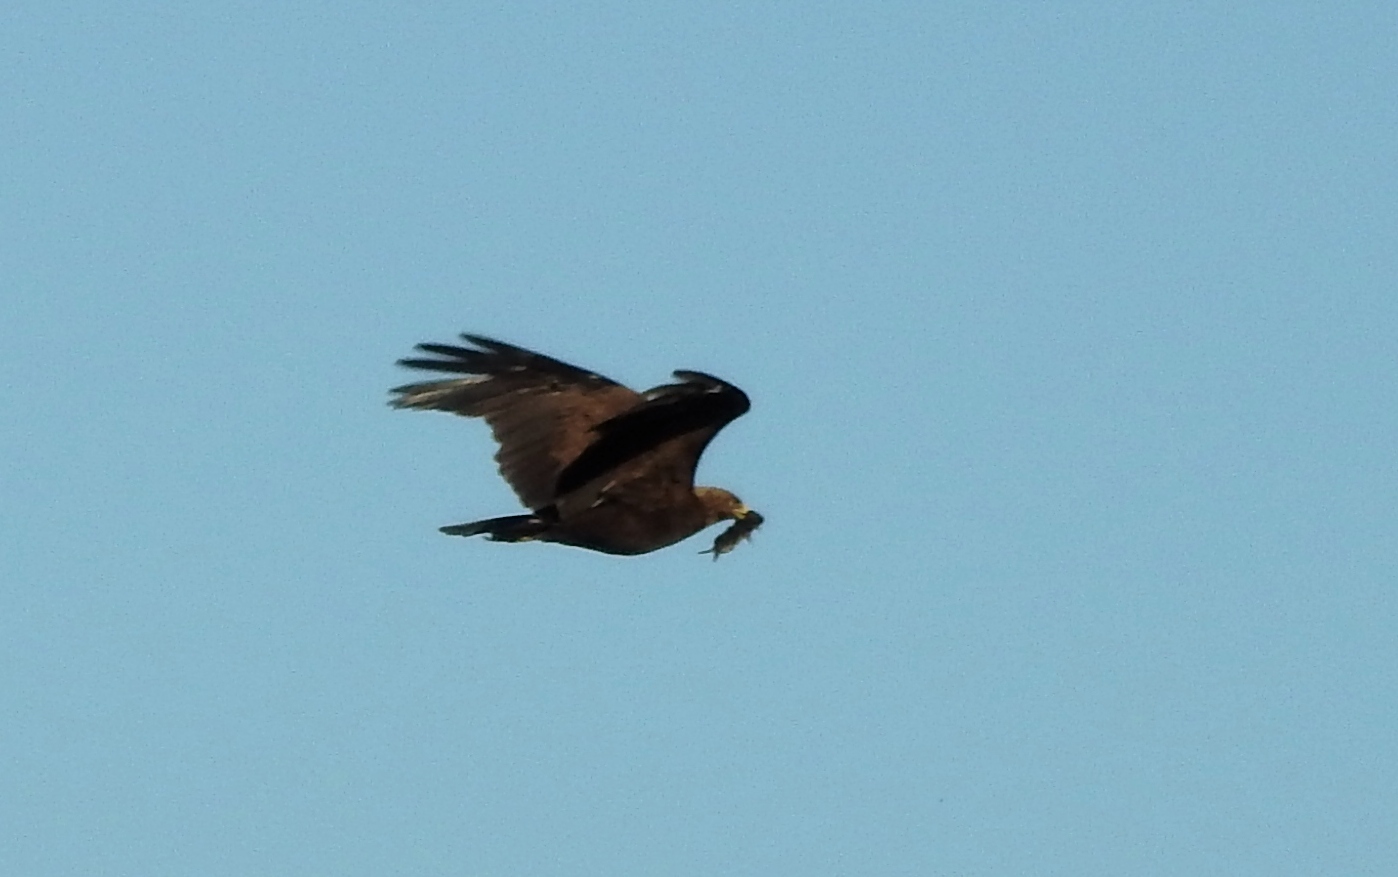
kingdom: Animalia
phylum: Chordata
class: Aves
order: Accipitriformes
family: Accipitridae
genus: Aquila
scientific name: Aquila clanga
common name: Greater spotted eagle
